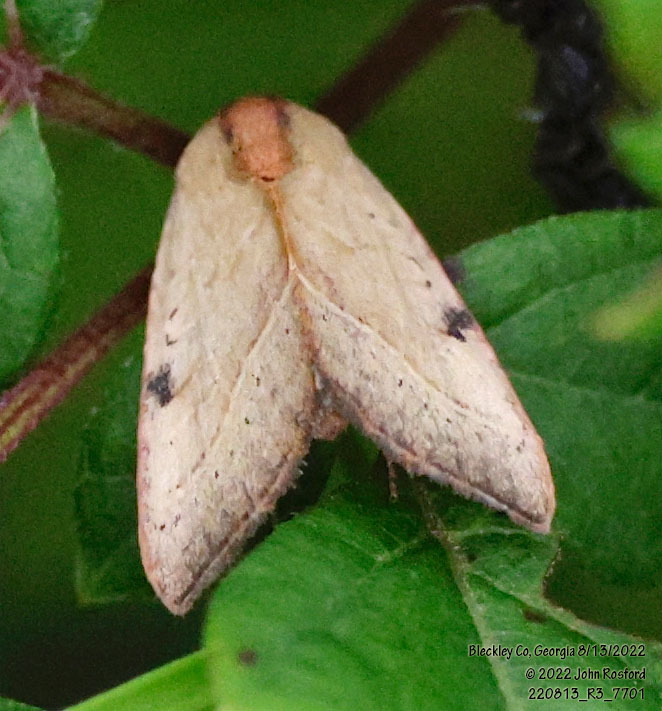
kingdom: Animalia
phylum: Arthropoda
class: Insecta
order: Lepidoptera
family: Noctuidae
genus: Galgula
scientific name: Galgula partita
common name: Wedgeling
